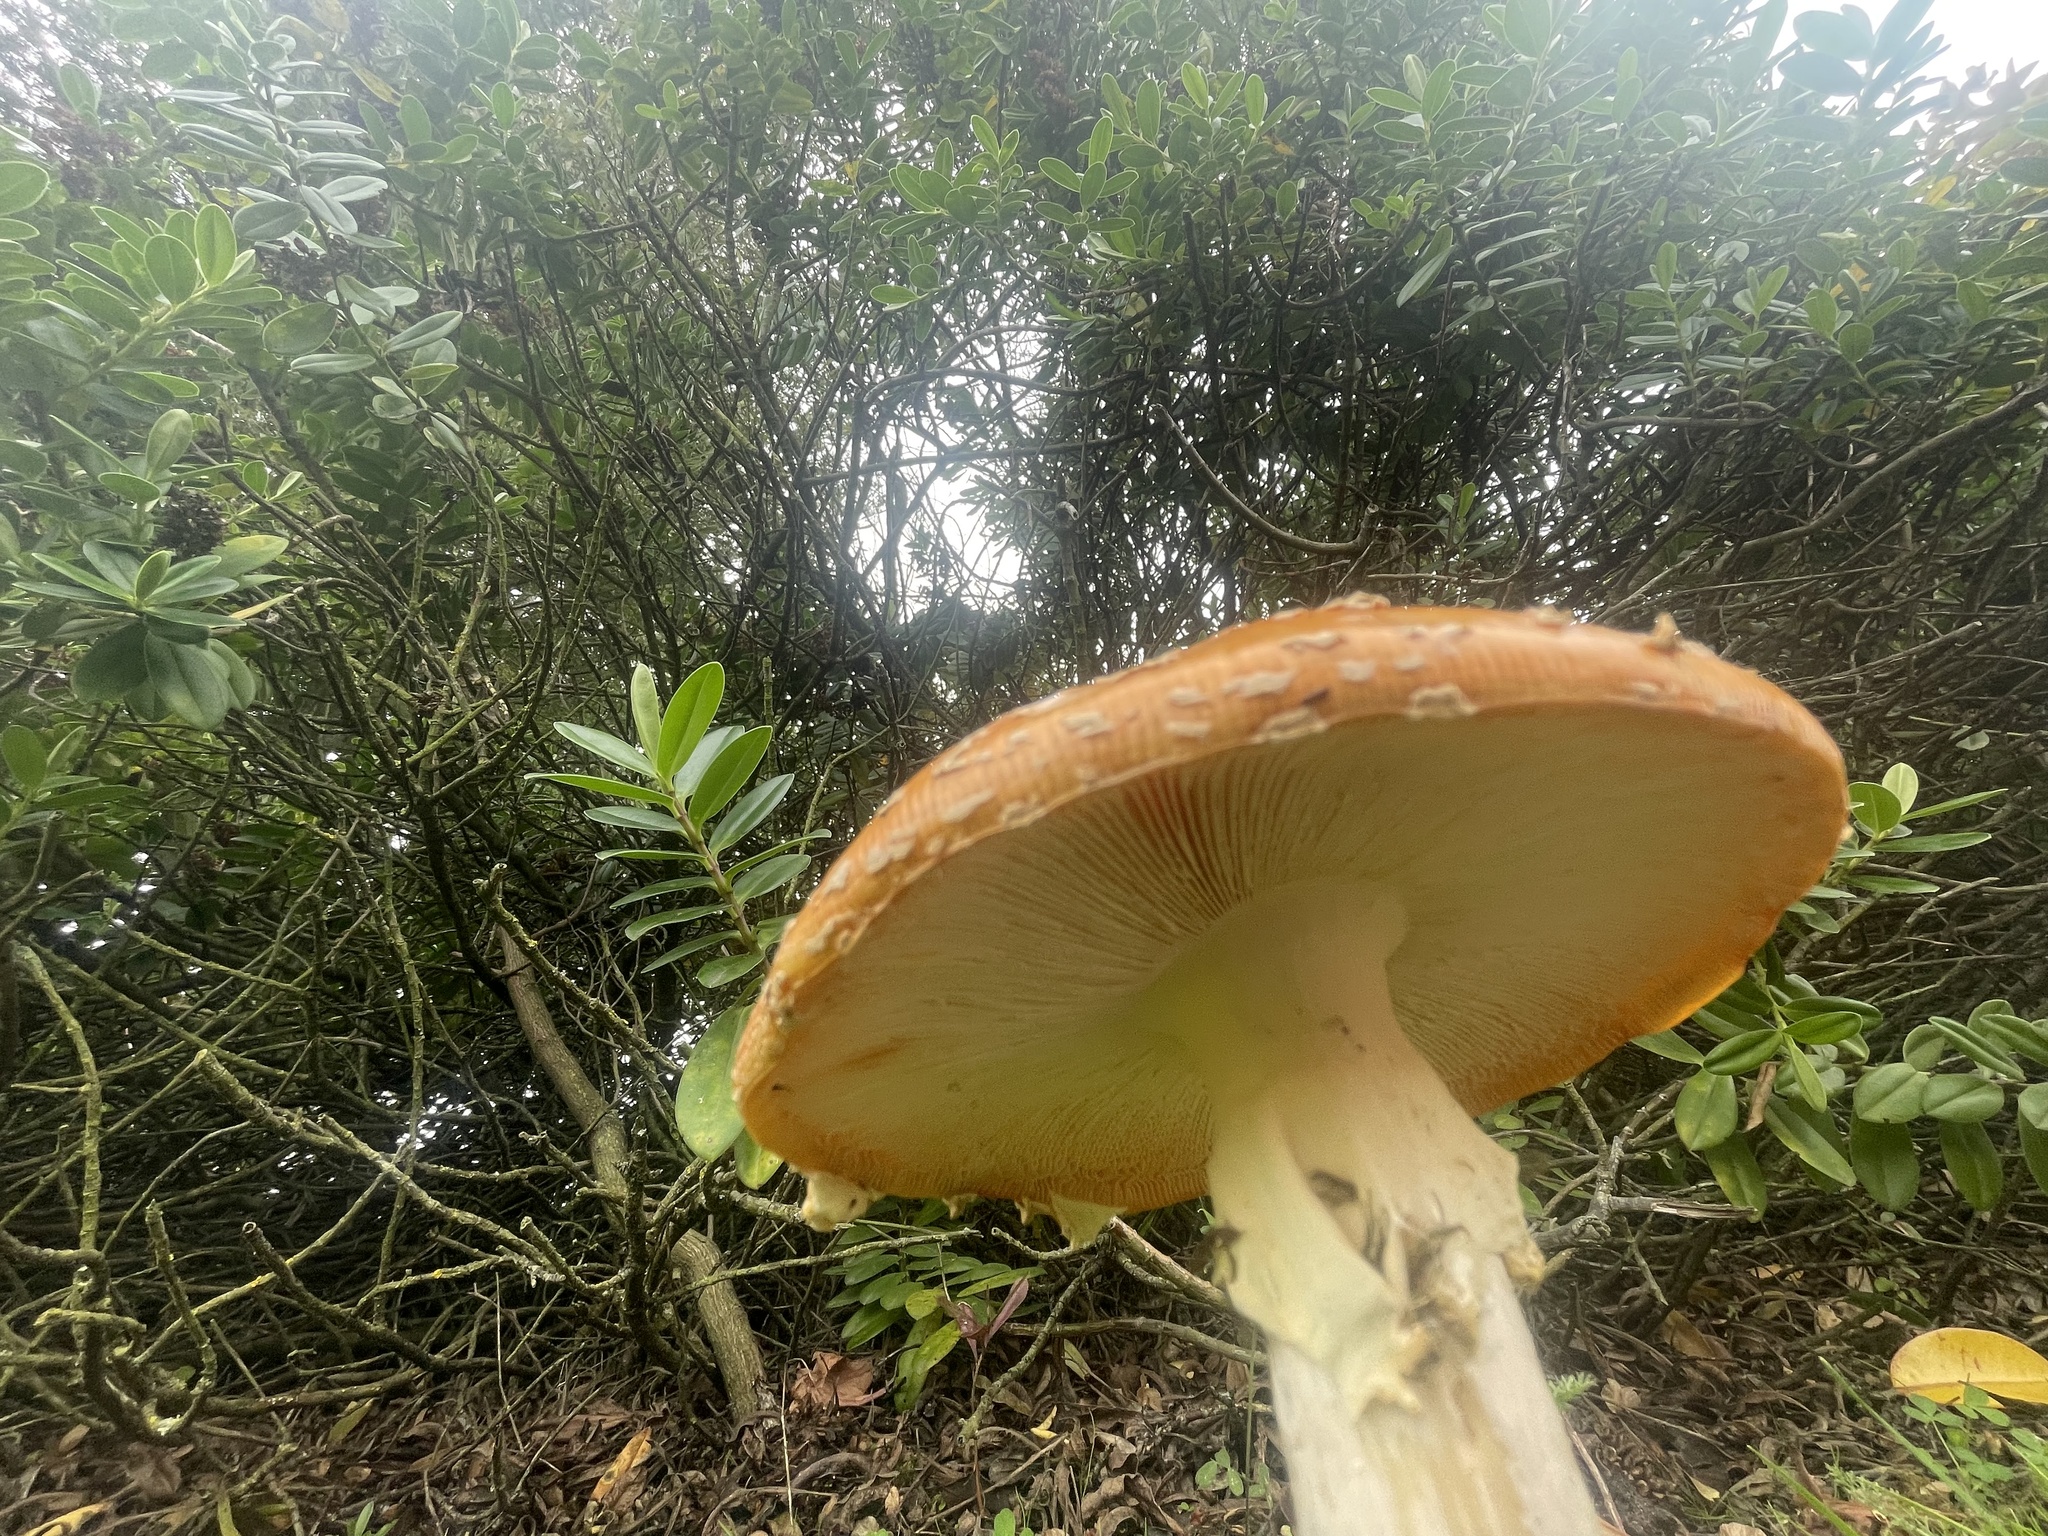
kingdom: Fungi
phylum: Basidiomycota
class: Agaricomycetes
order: Agaricales
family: Amanitaceae
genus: Amanita
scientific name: Amanita muscaria
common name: Fly agaric
